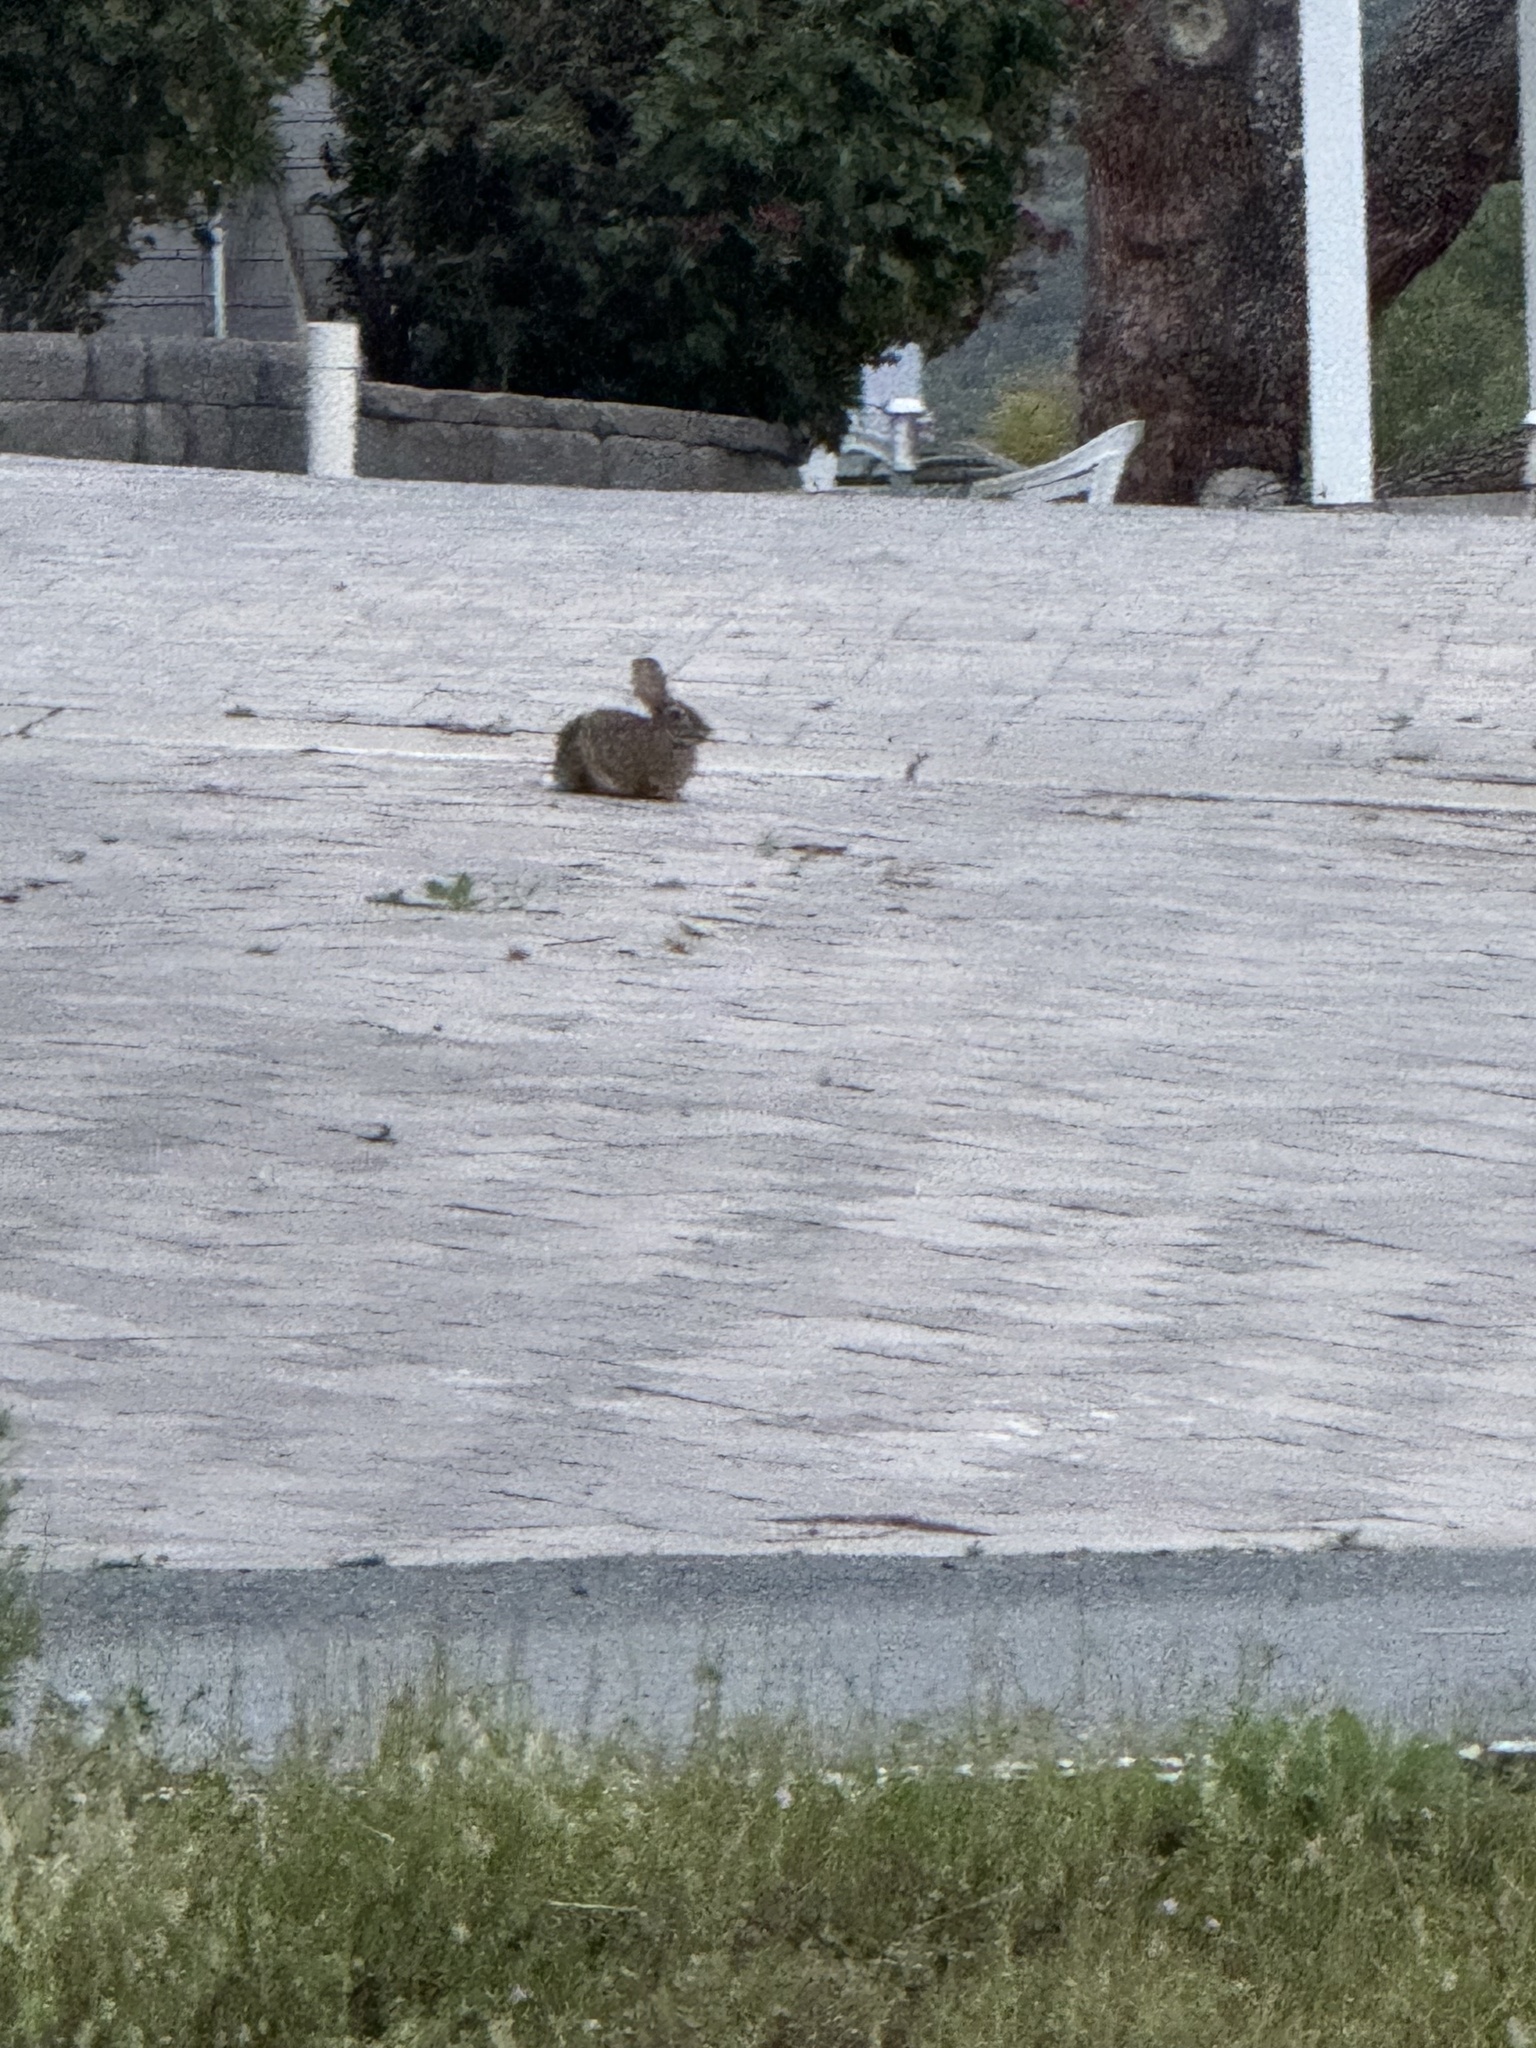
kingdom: Animalia
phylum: Chordata
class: Mammalia
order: Lagomorpha
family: Leporidae
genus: Sylvilagus
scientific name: Sylvilagus audubonii
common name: Desert cottontail
